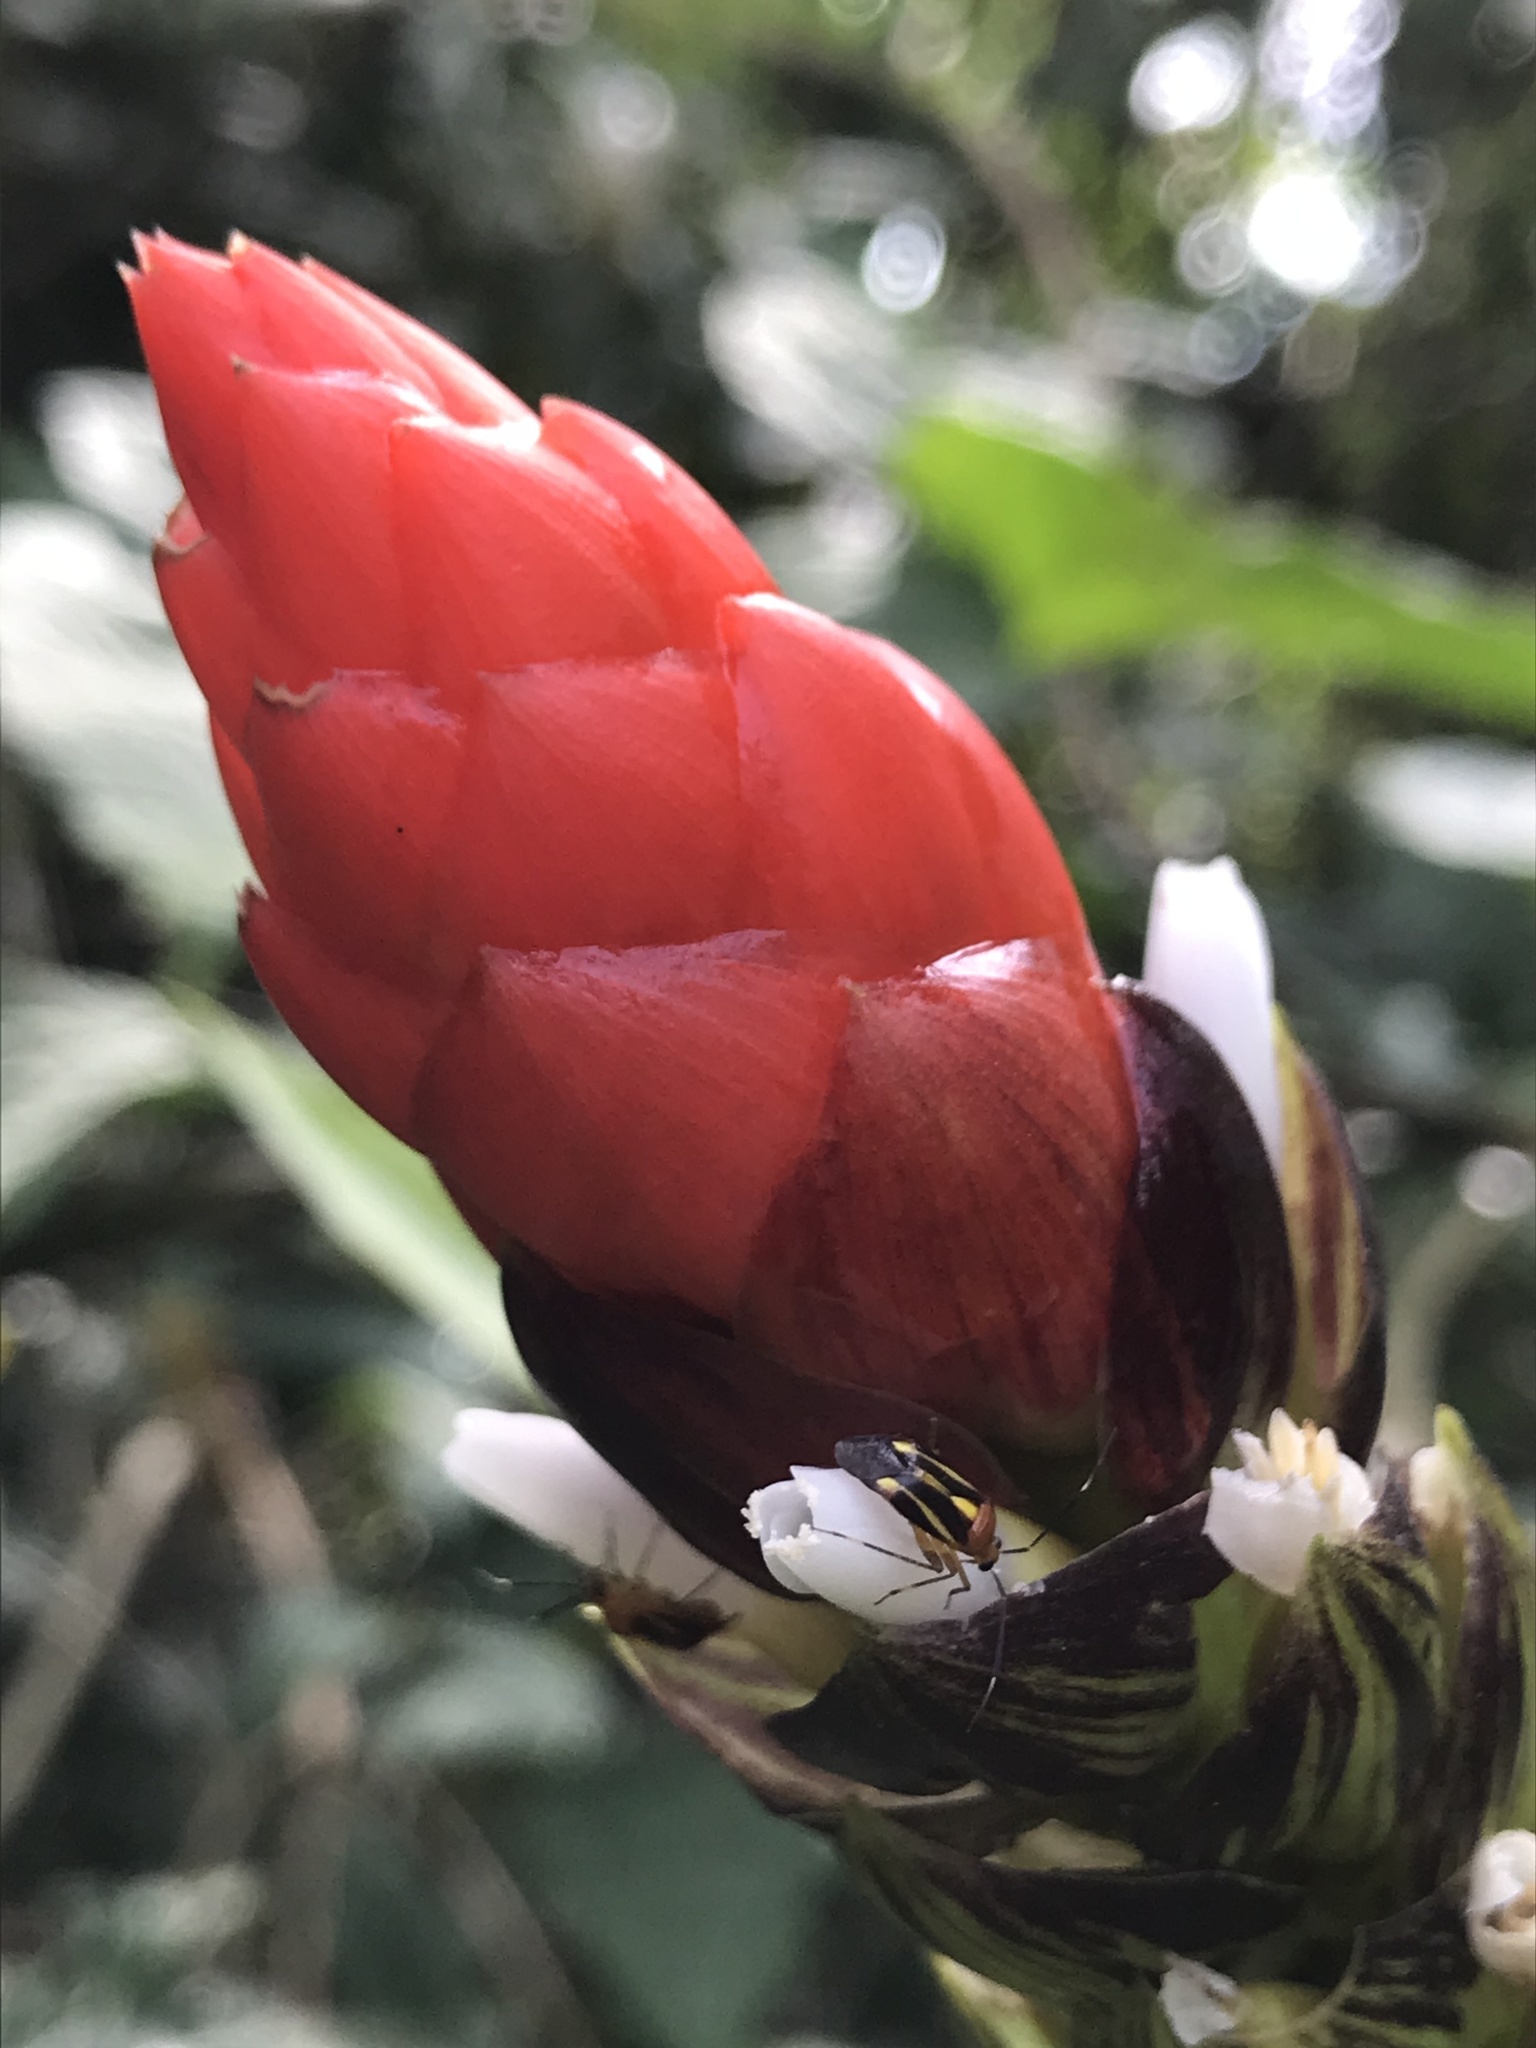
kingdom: Plantae
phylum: Tracheophyta
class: Liliopsida
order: Poales
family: Bromeliaceae
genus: Guzmania
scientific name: Guzmania monostachia
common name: West indian tufted airplant
